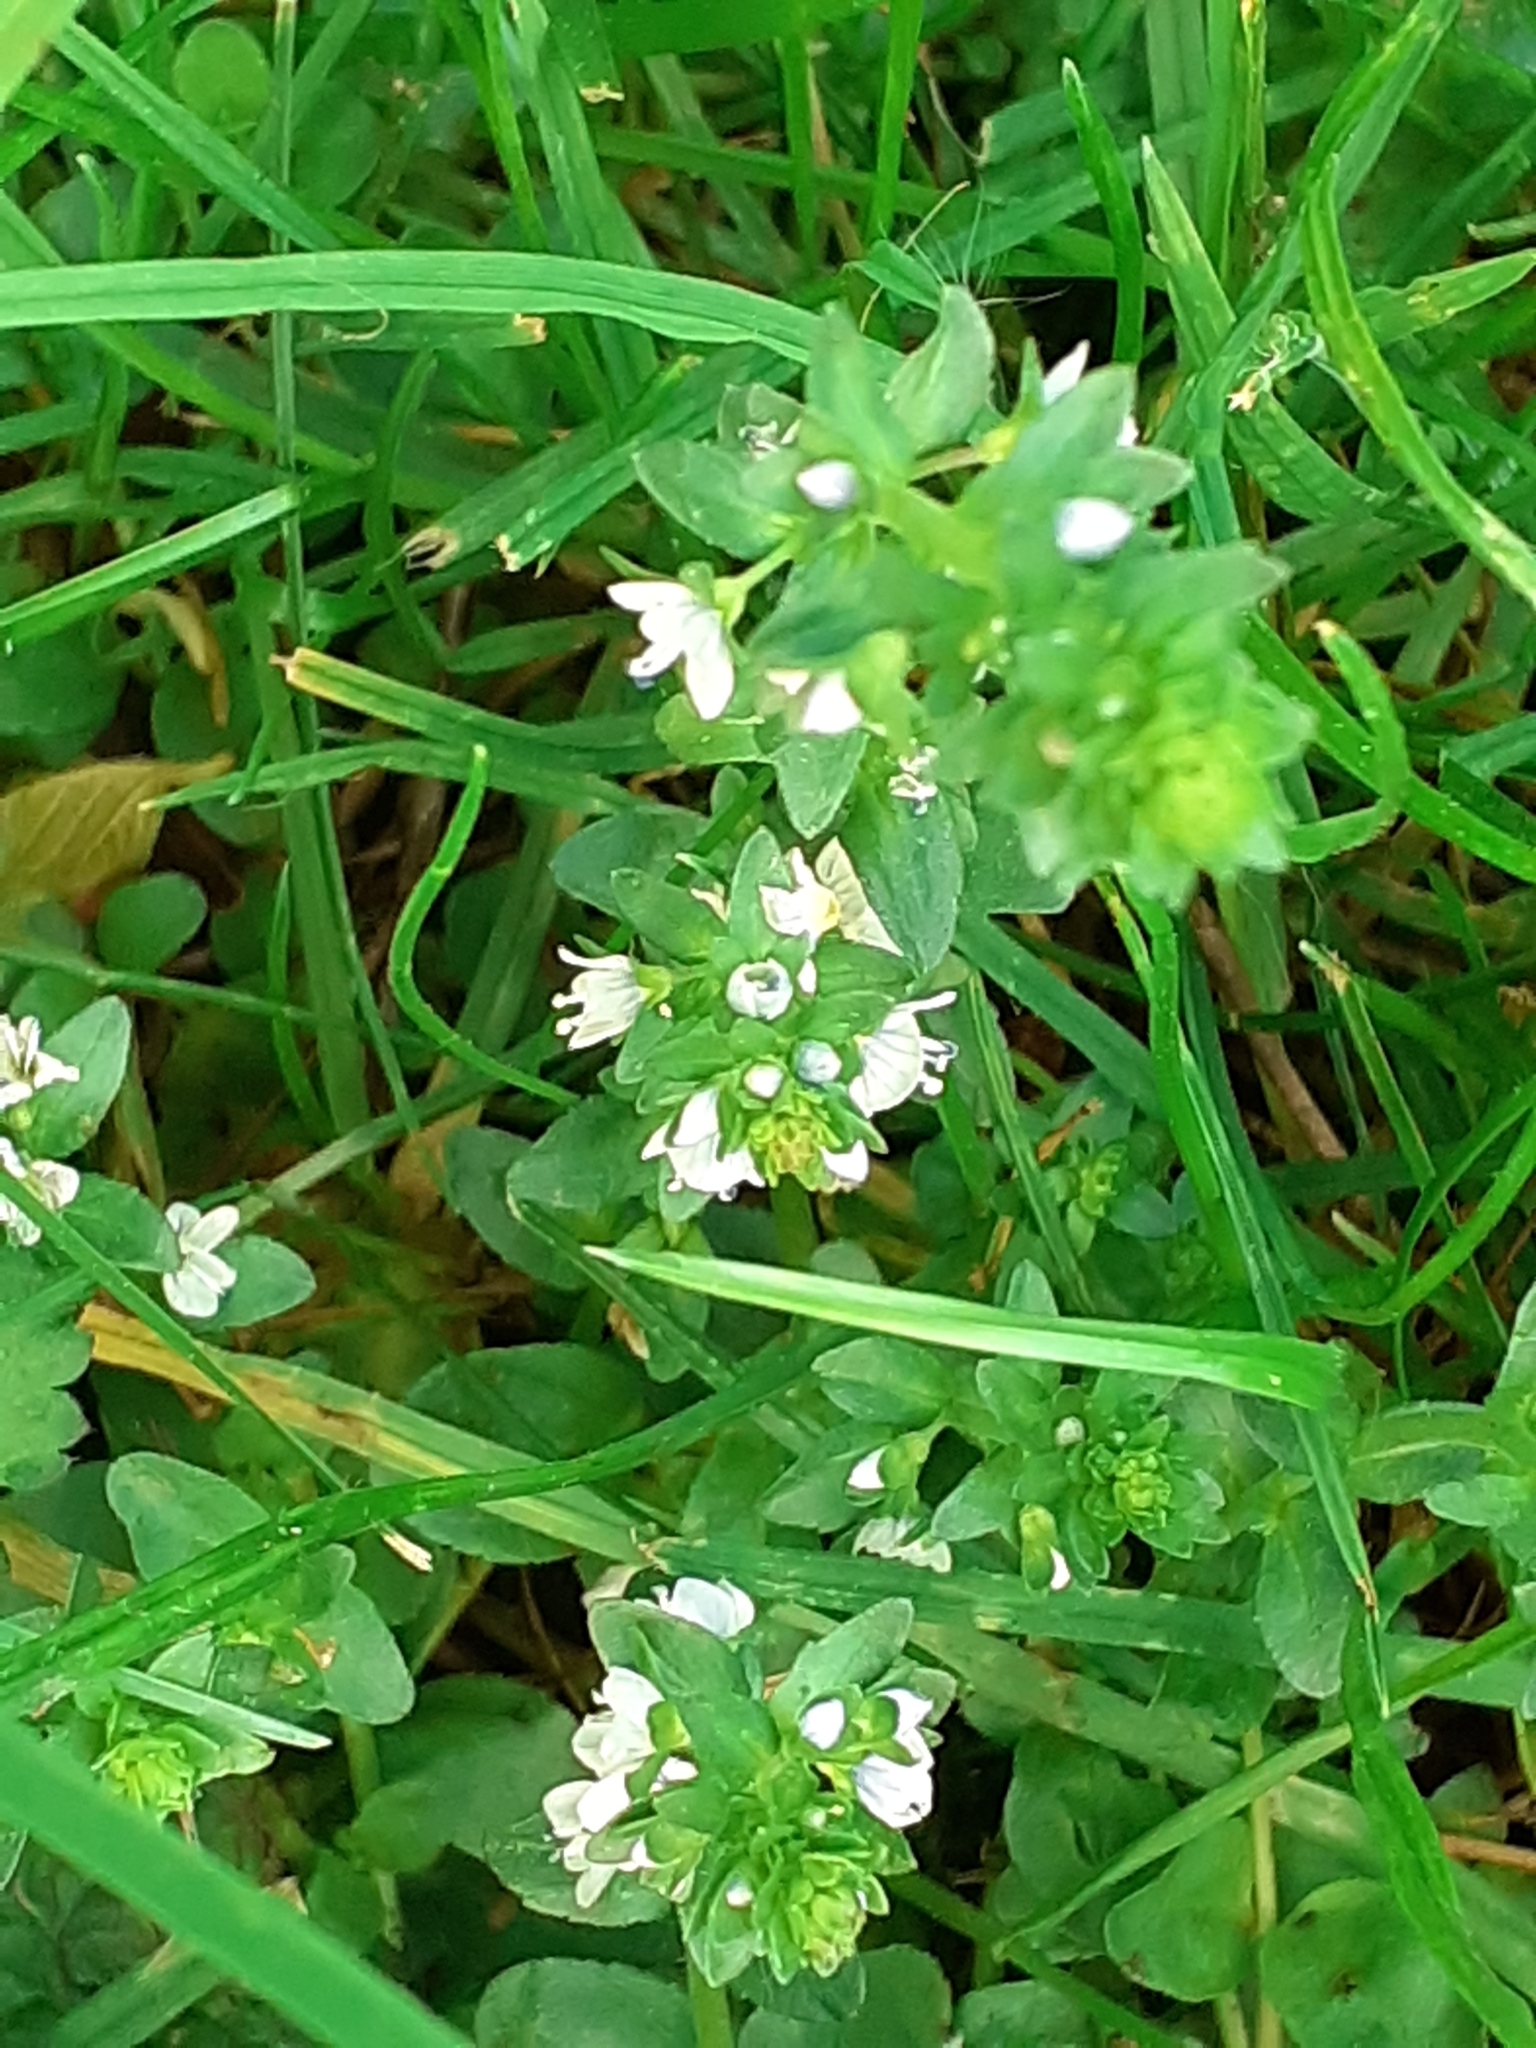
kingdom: Plantae
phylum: Tracheophyta
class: Magnoliopsida
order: Lamiales
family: Plantaginaceae
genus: Veronica
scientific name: Veronica serpyllifolia
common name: Thyme-leaved speedwell
